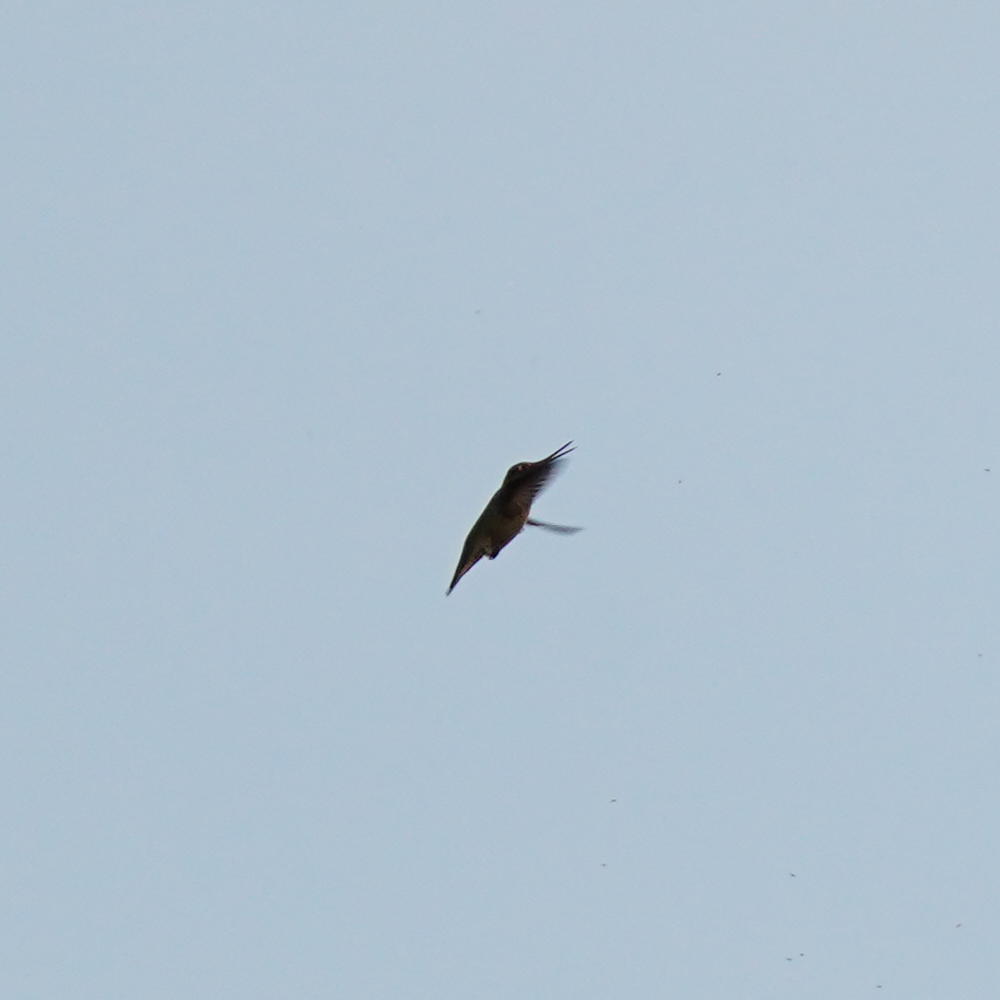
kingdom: Animalia
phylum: Chordata
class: Aves
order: Apodiformes
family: Trochilidae
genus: Calypte
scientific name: Calypte anna
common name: Anna's hummingbird
